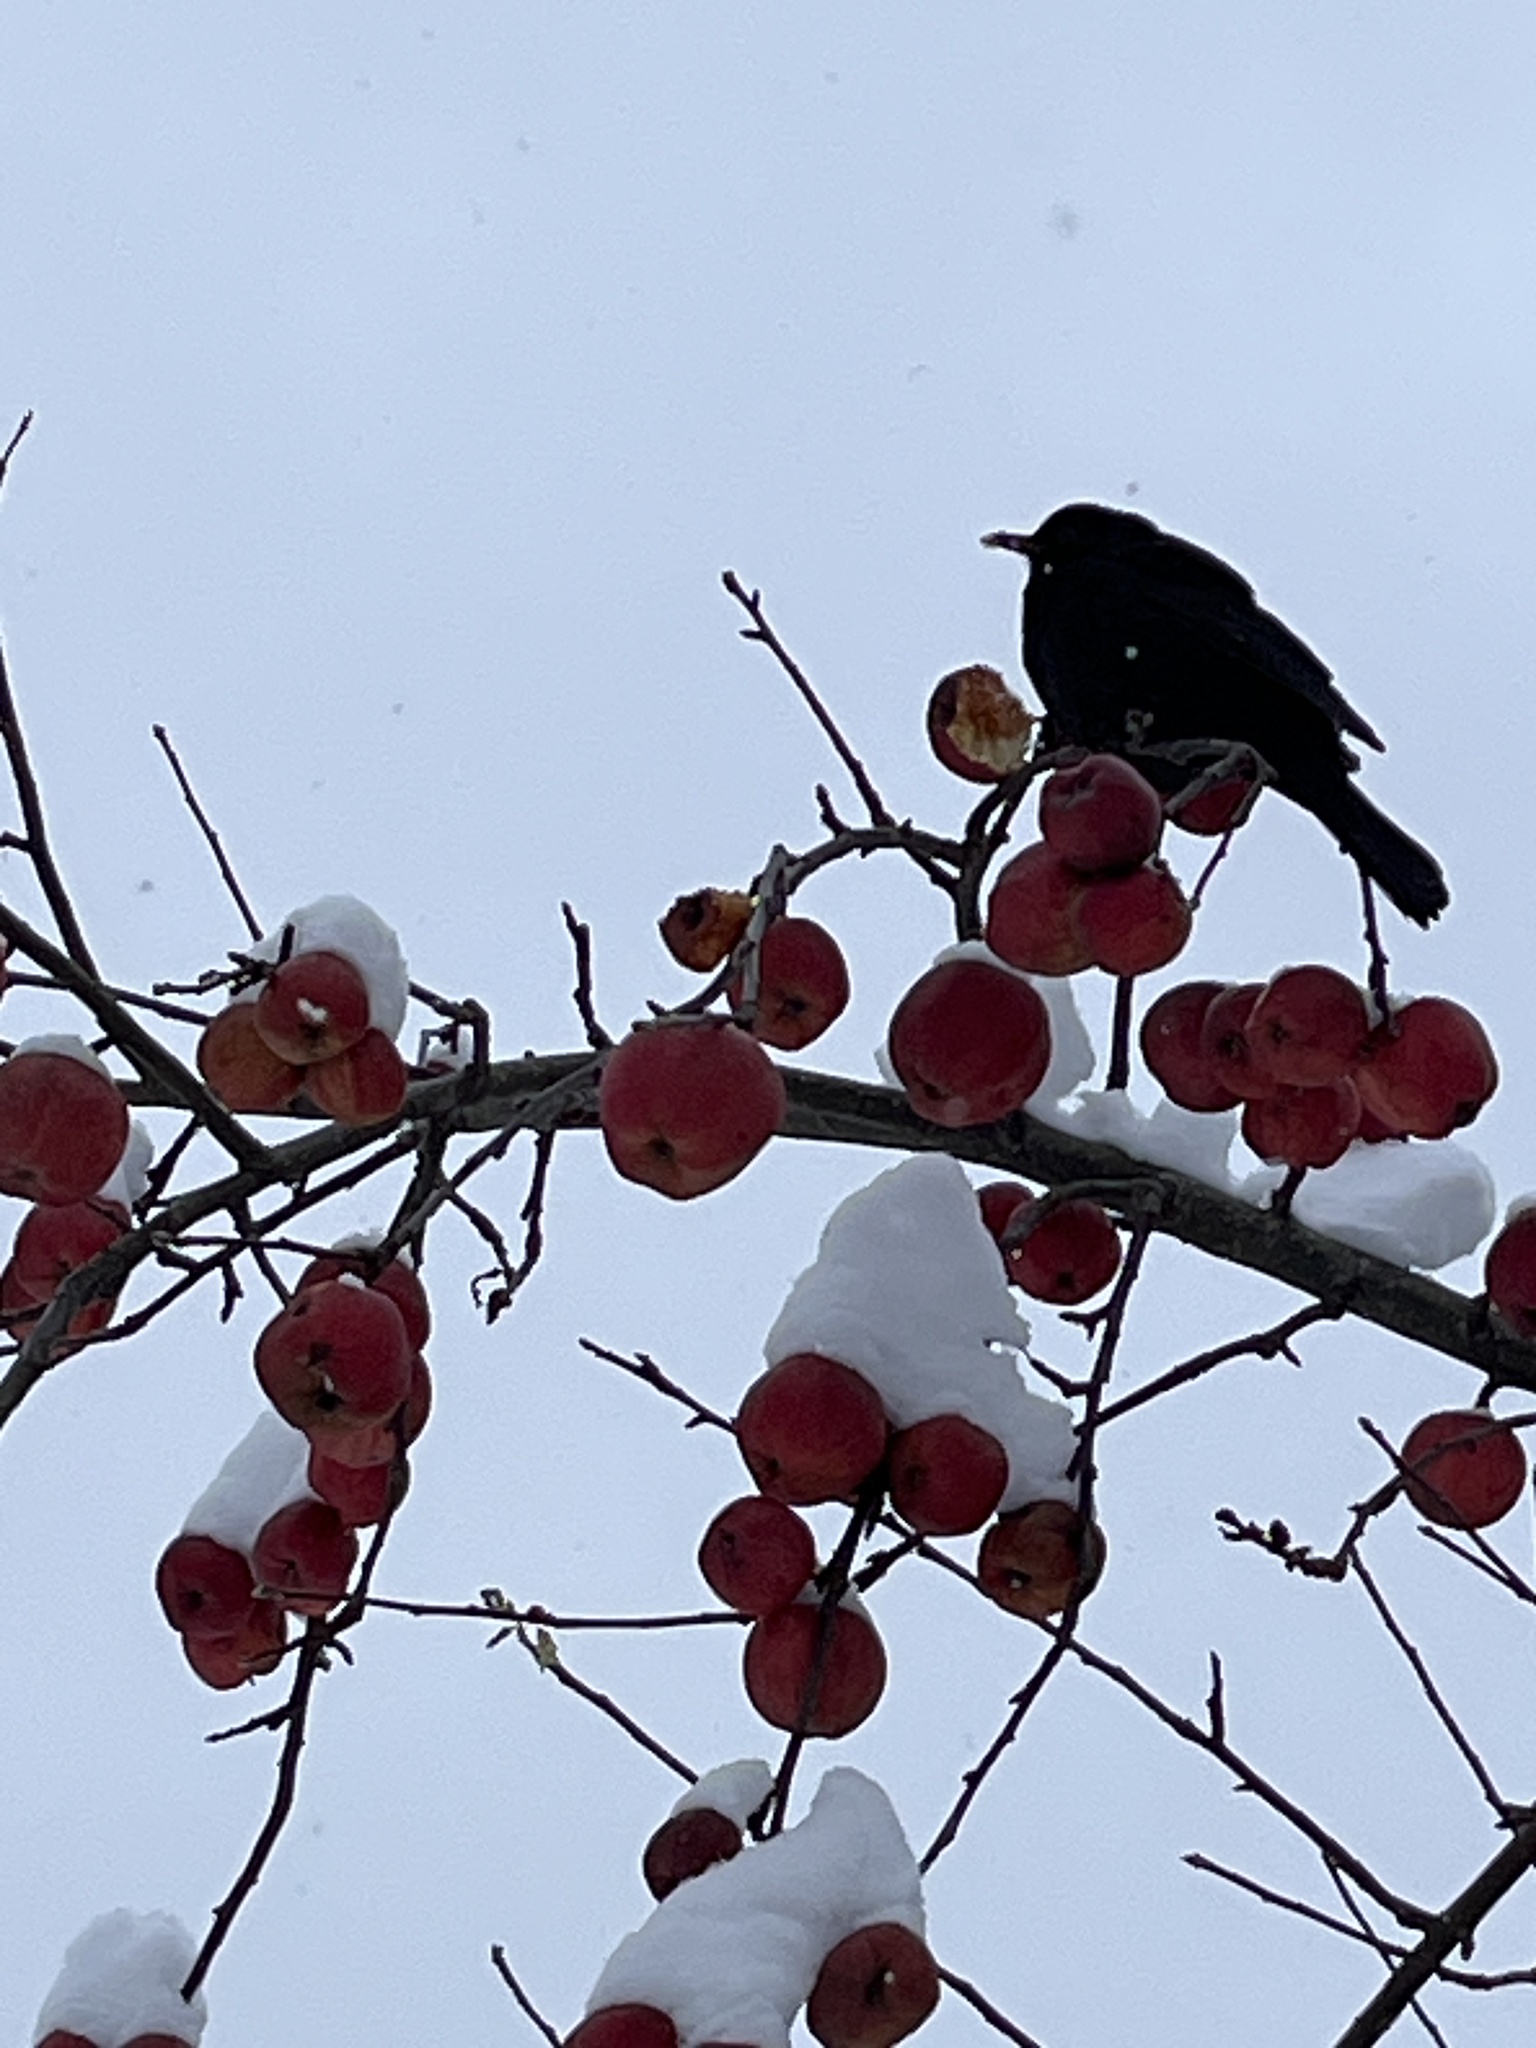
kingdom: Animalia
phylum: Chordata
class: Aves
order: Passeriformes
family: Turdidae
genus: Turdus
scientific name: Turdus merula
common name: Common blackbird
